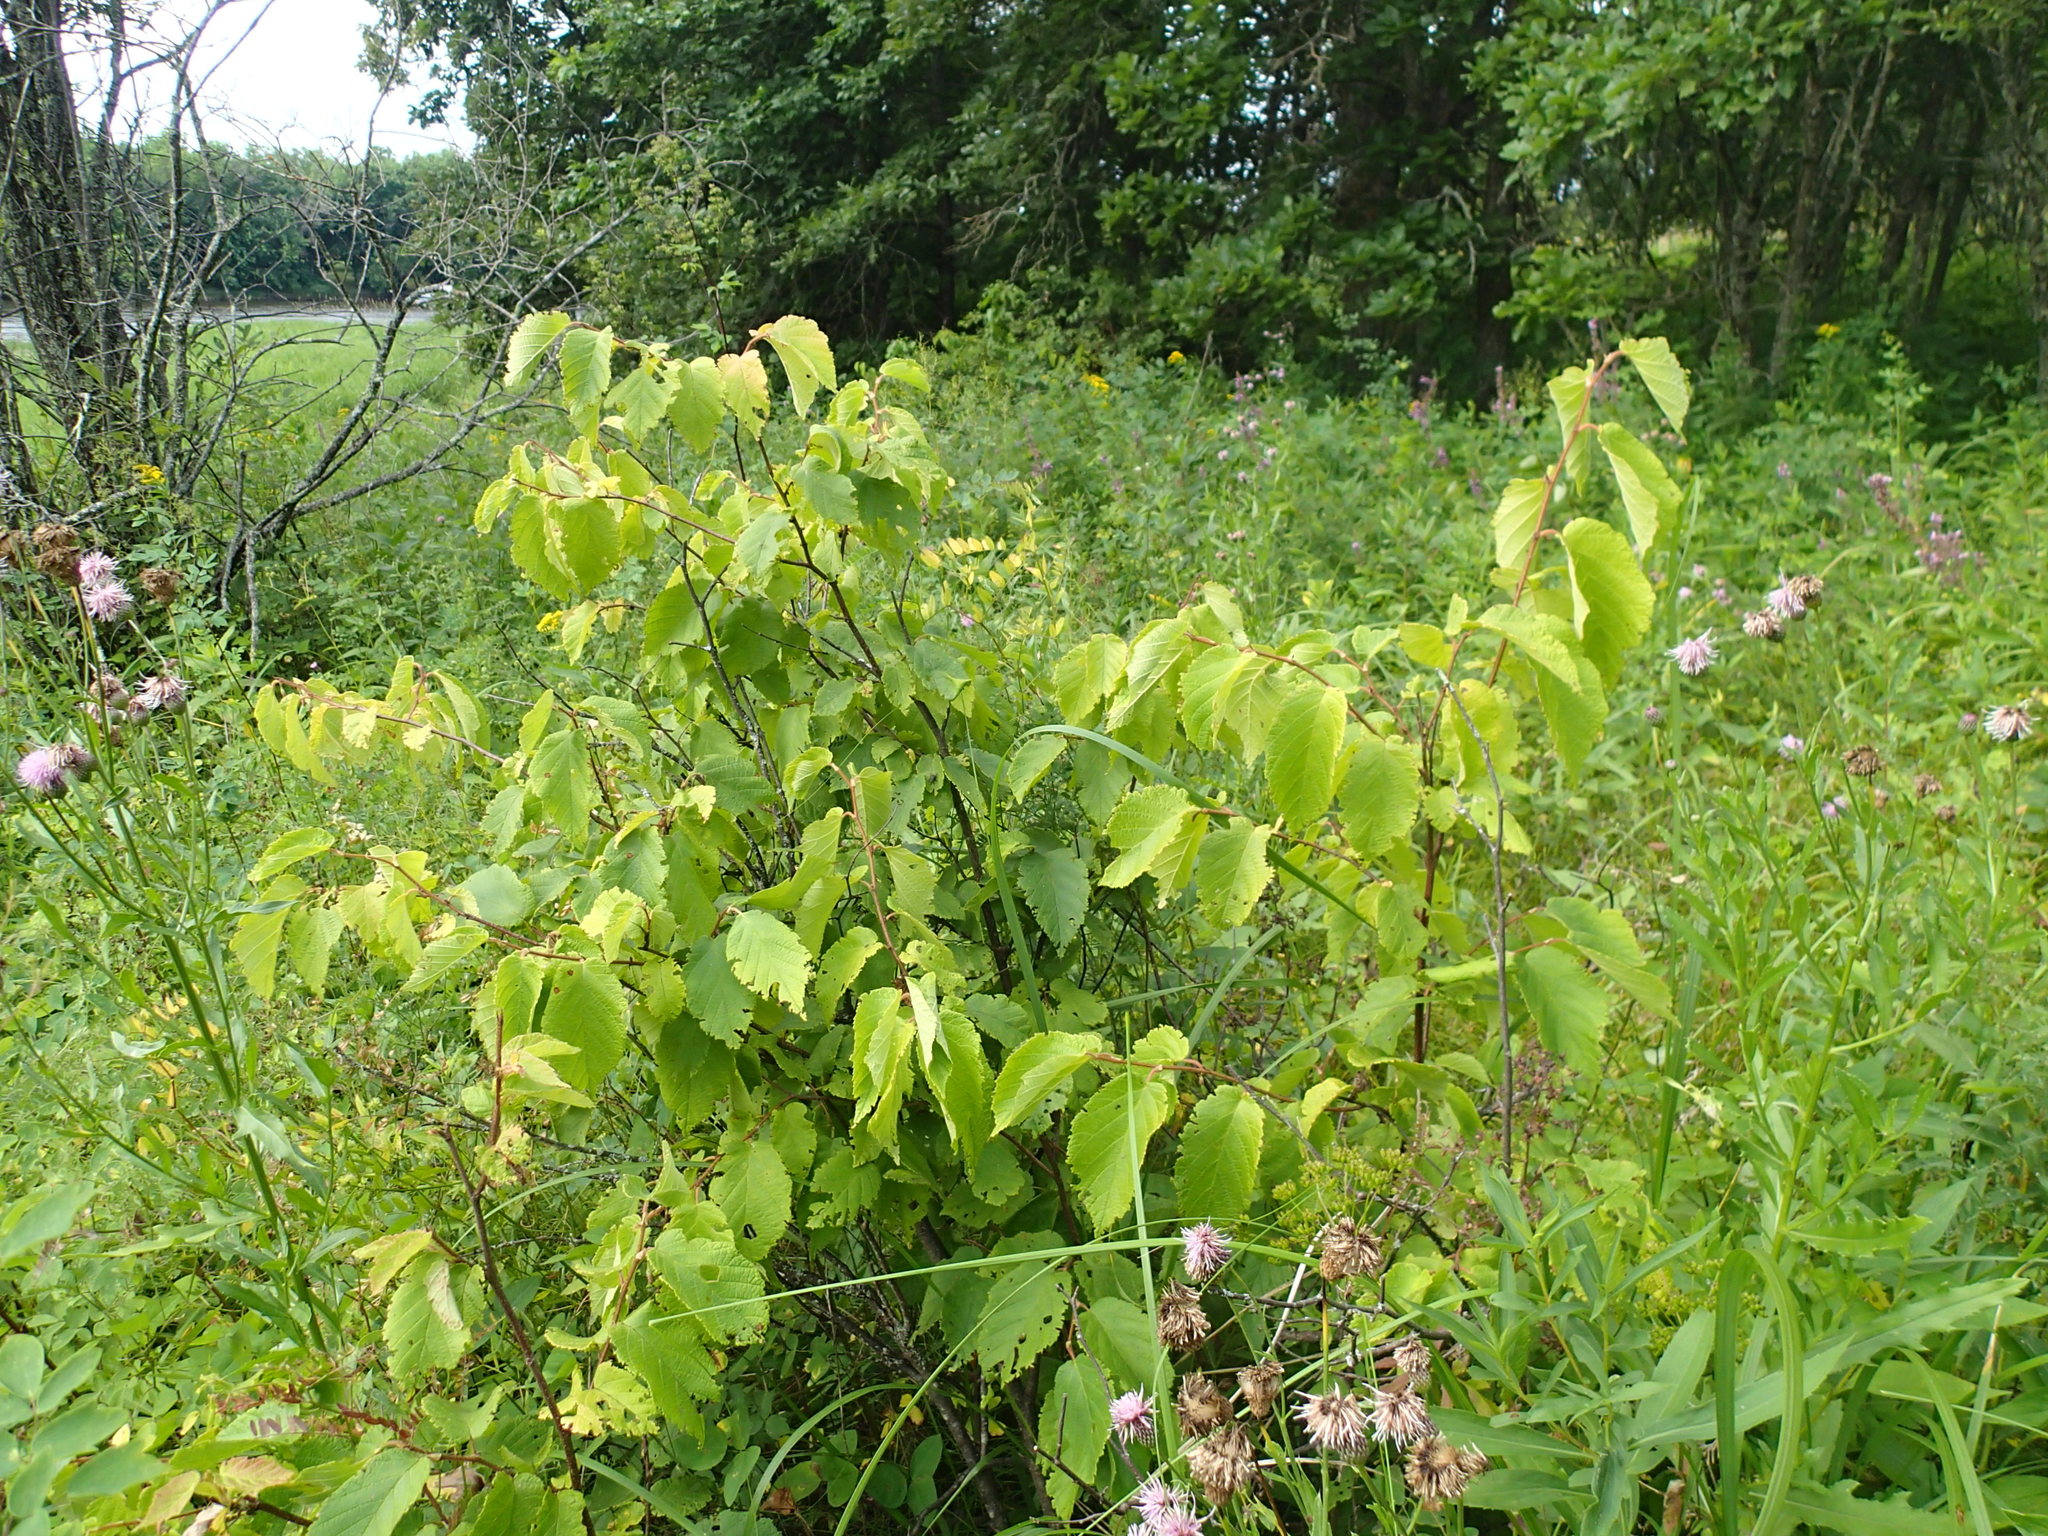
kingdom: Plantae
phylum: Tracheophyta
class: Magnoliopsida
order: Fagales
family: Betulaceae
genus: Corylus
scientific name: Corylus americana
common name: American hazel
